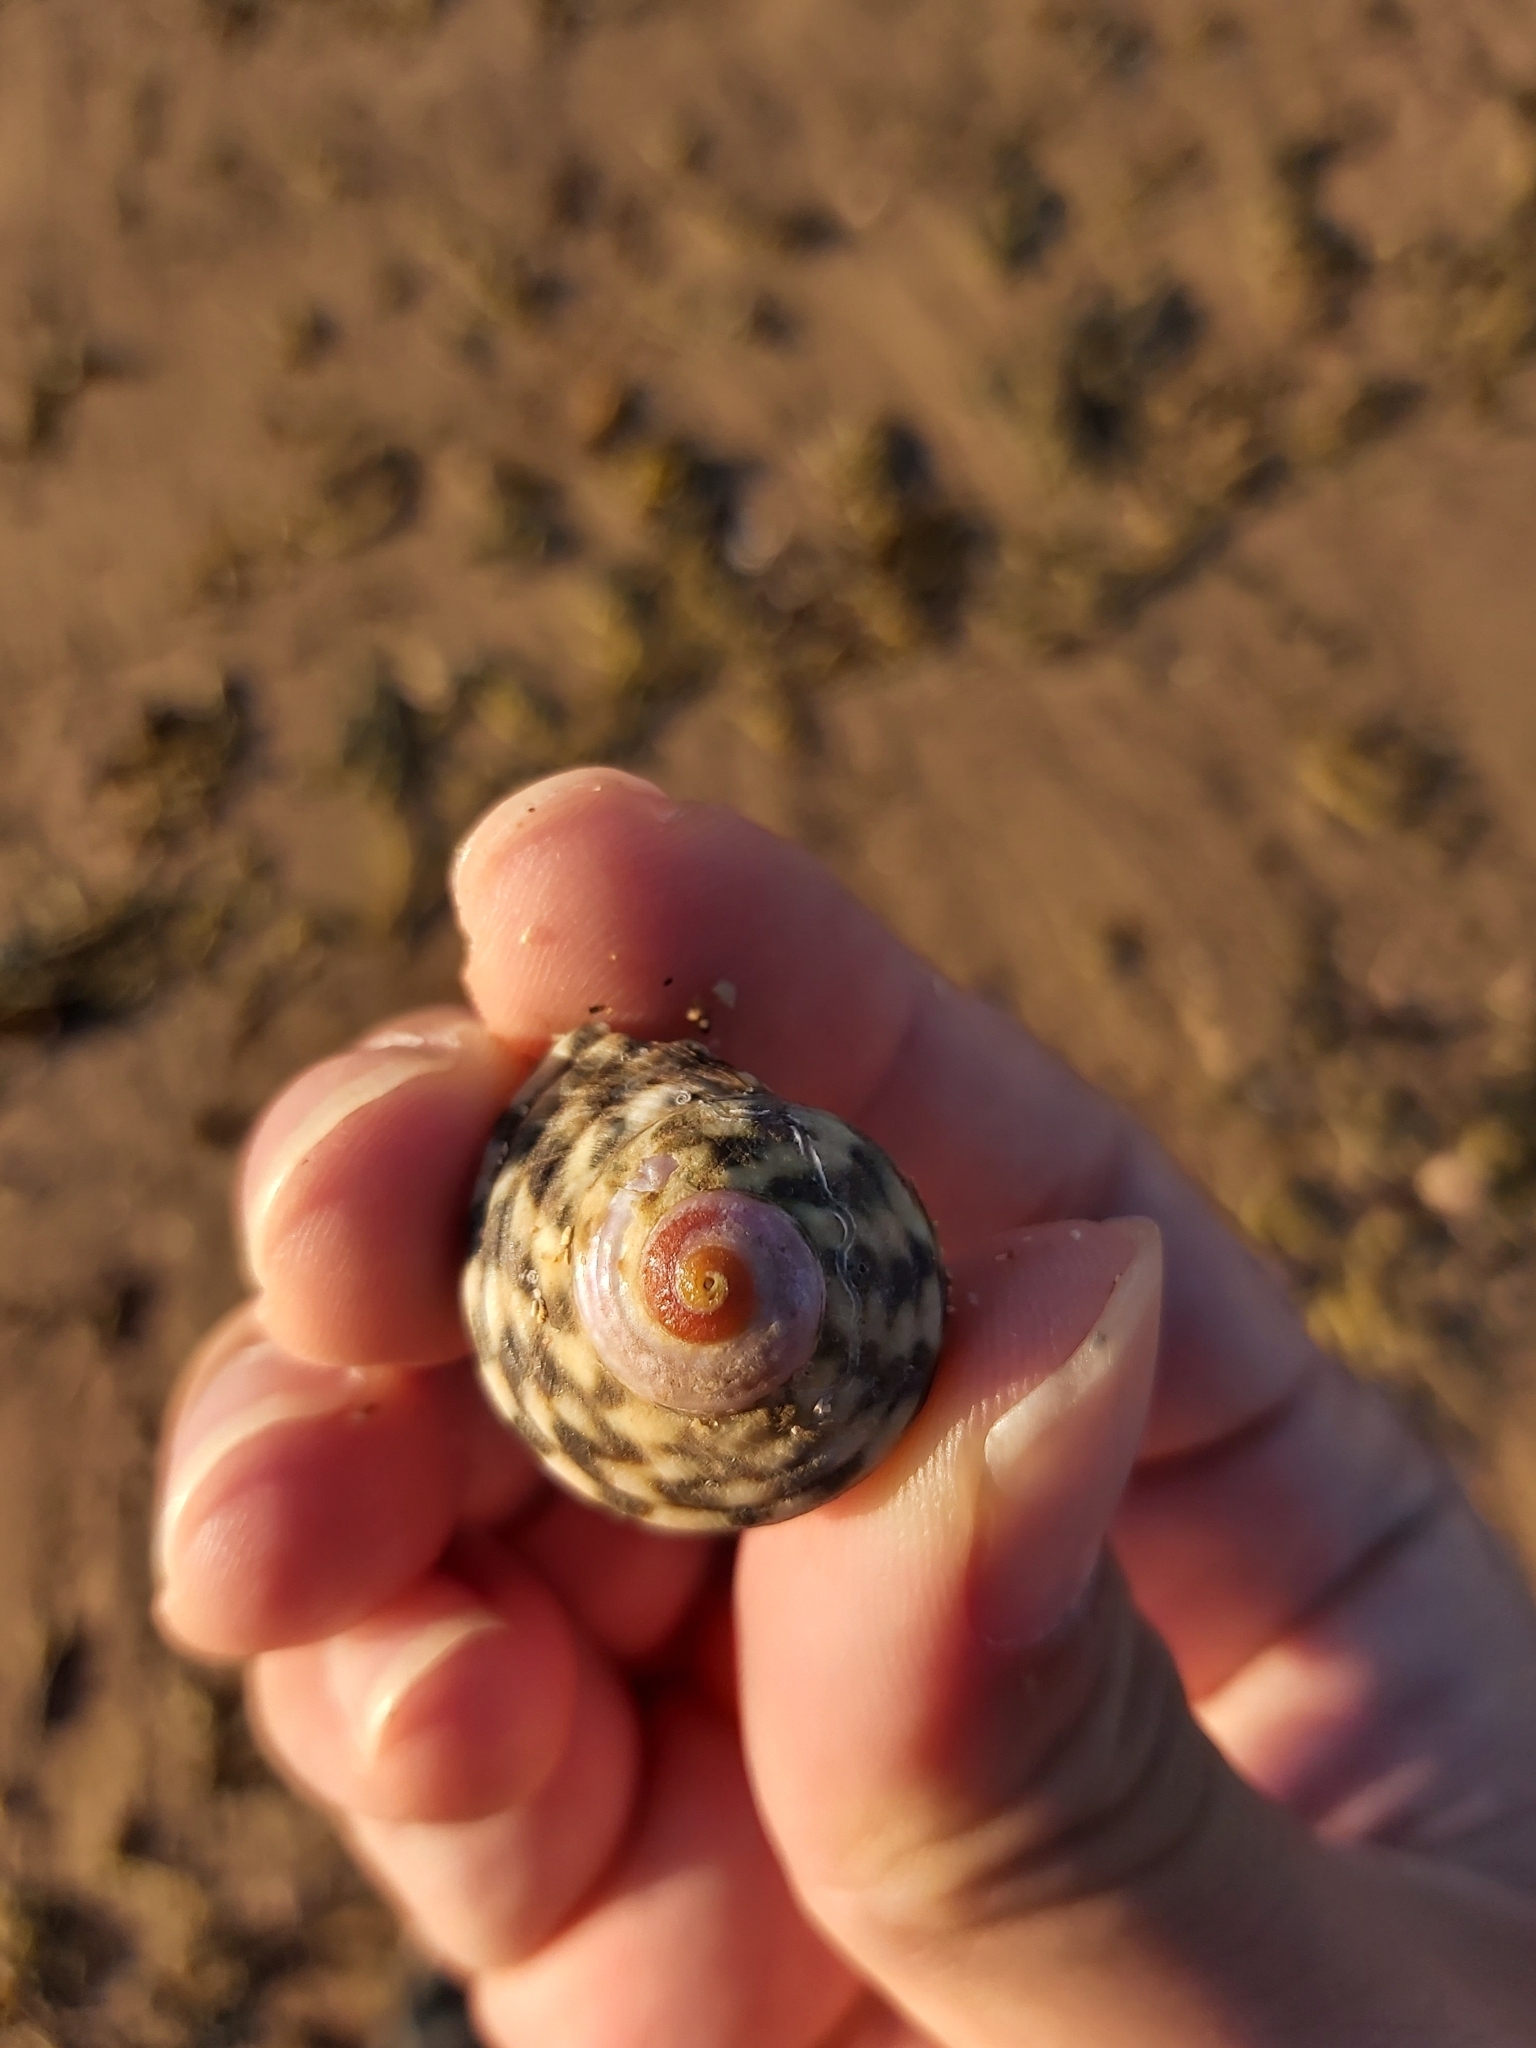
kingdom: Animalia
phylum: Mollusca
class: Gastropoda
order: Trochida
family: Turbinidae
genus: Lunella
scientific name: Lunella undulata
